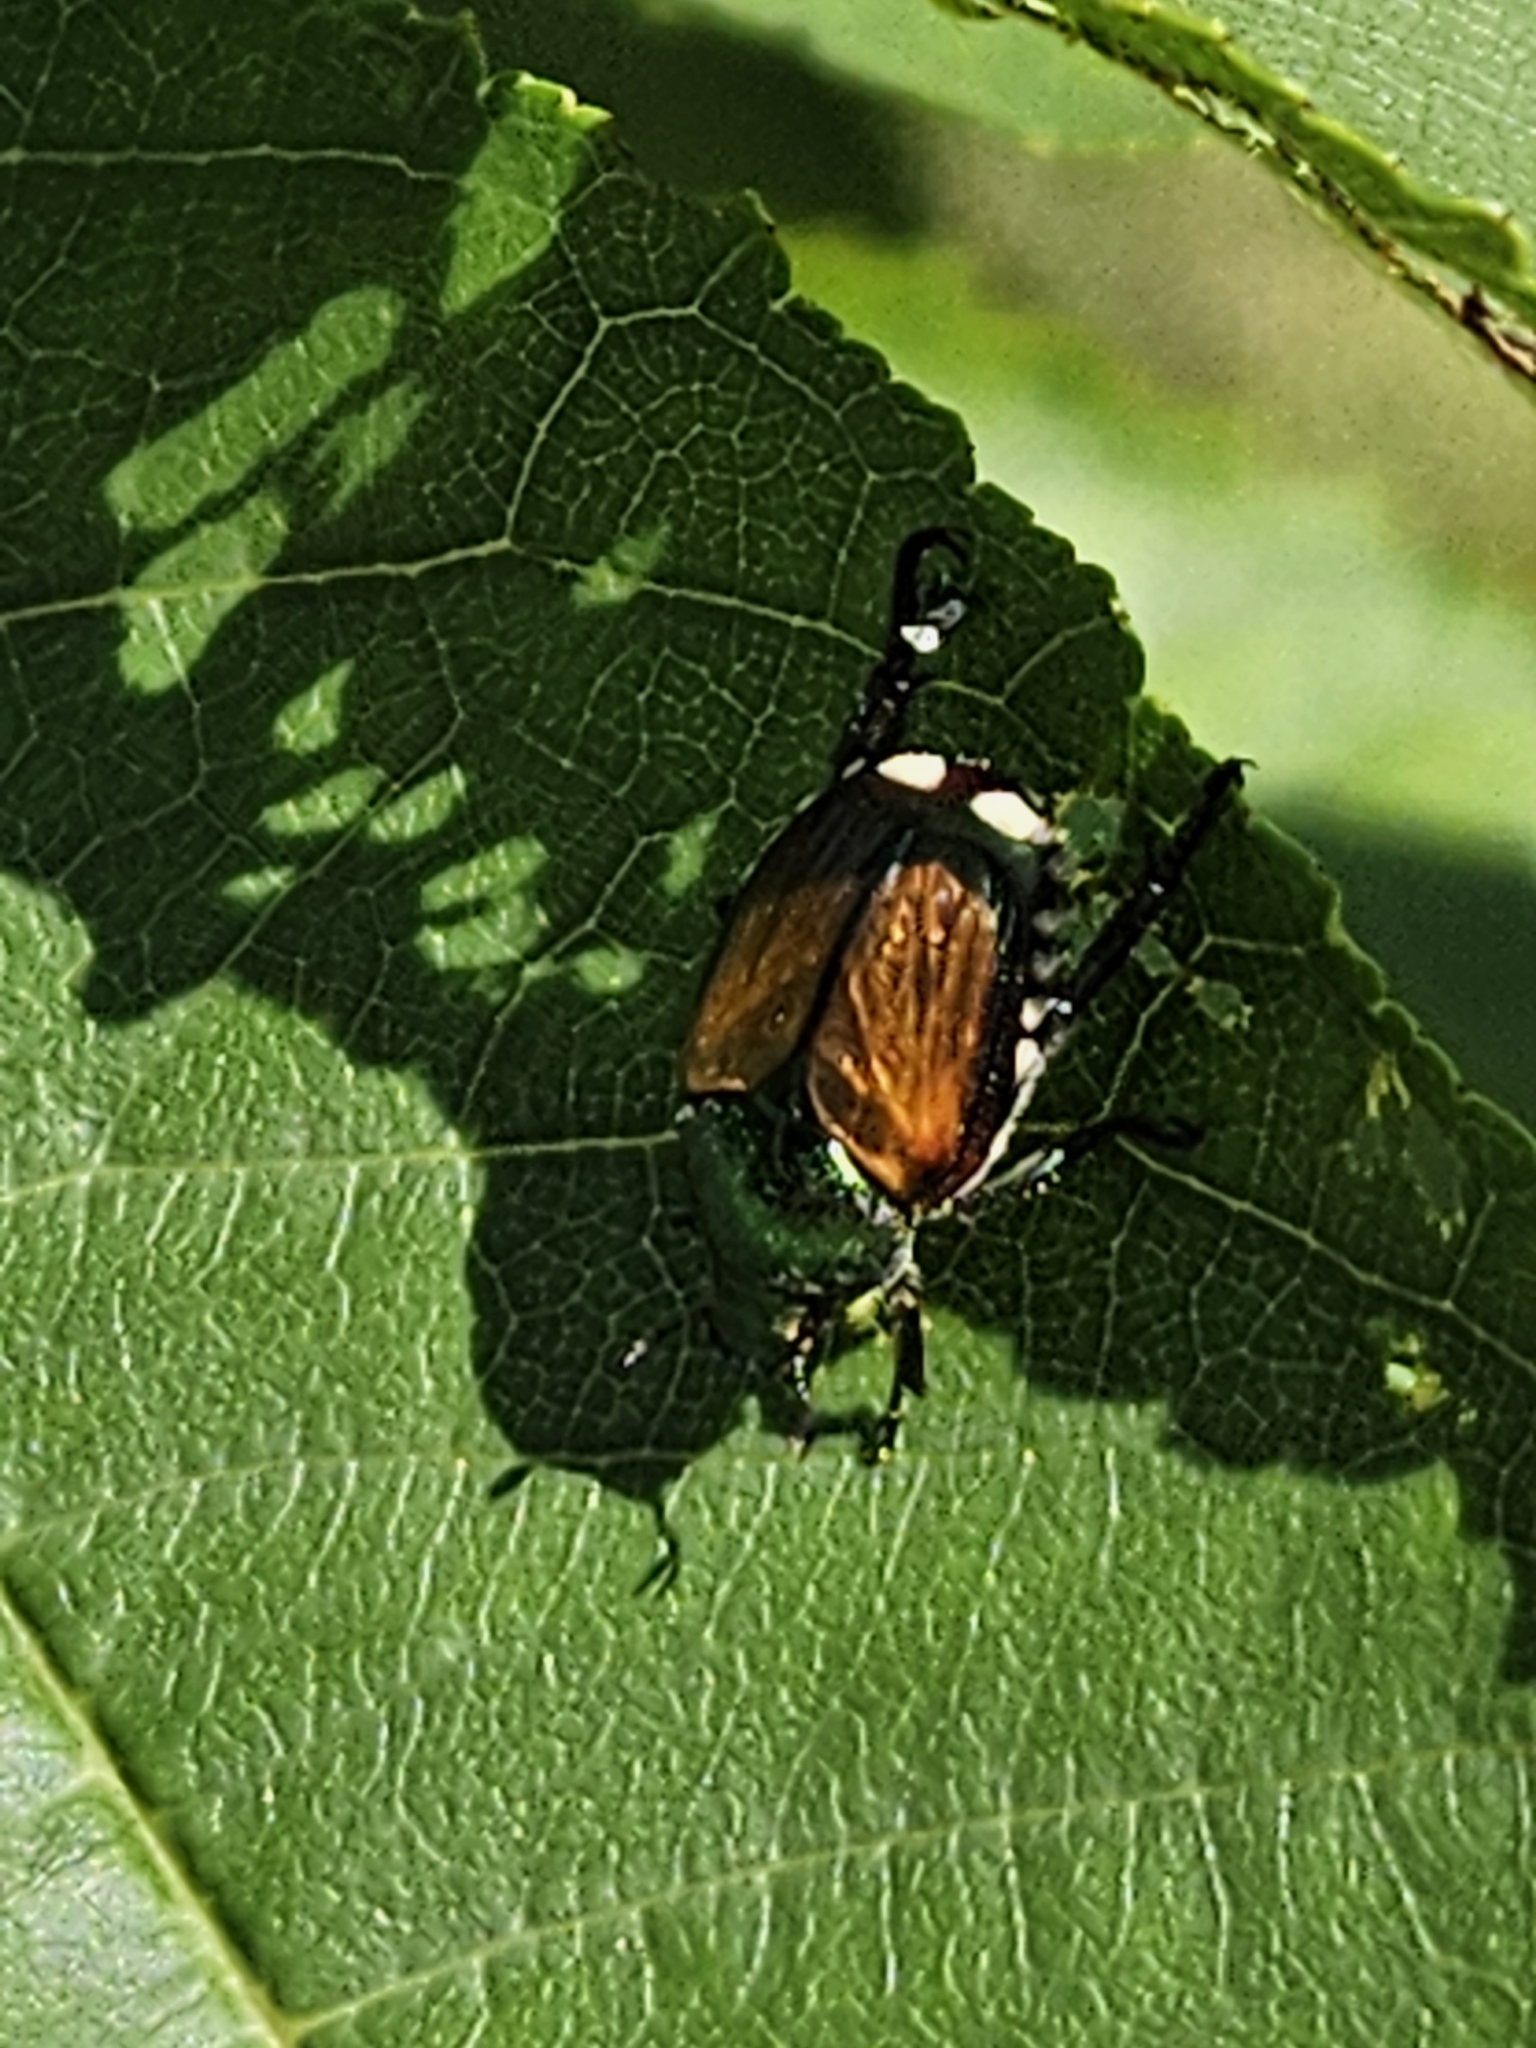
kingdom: Animalia
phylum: Arthropoda
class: Insecta
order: Coleoptera
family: Scarabaeidae
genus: Popillia
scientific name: Popillia japonica
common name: Japanese beetle
